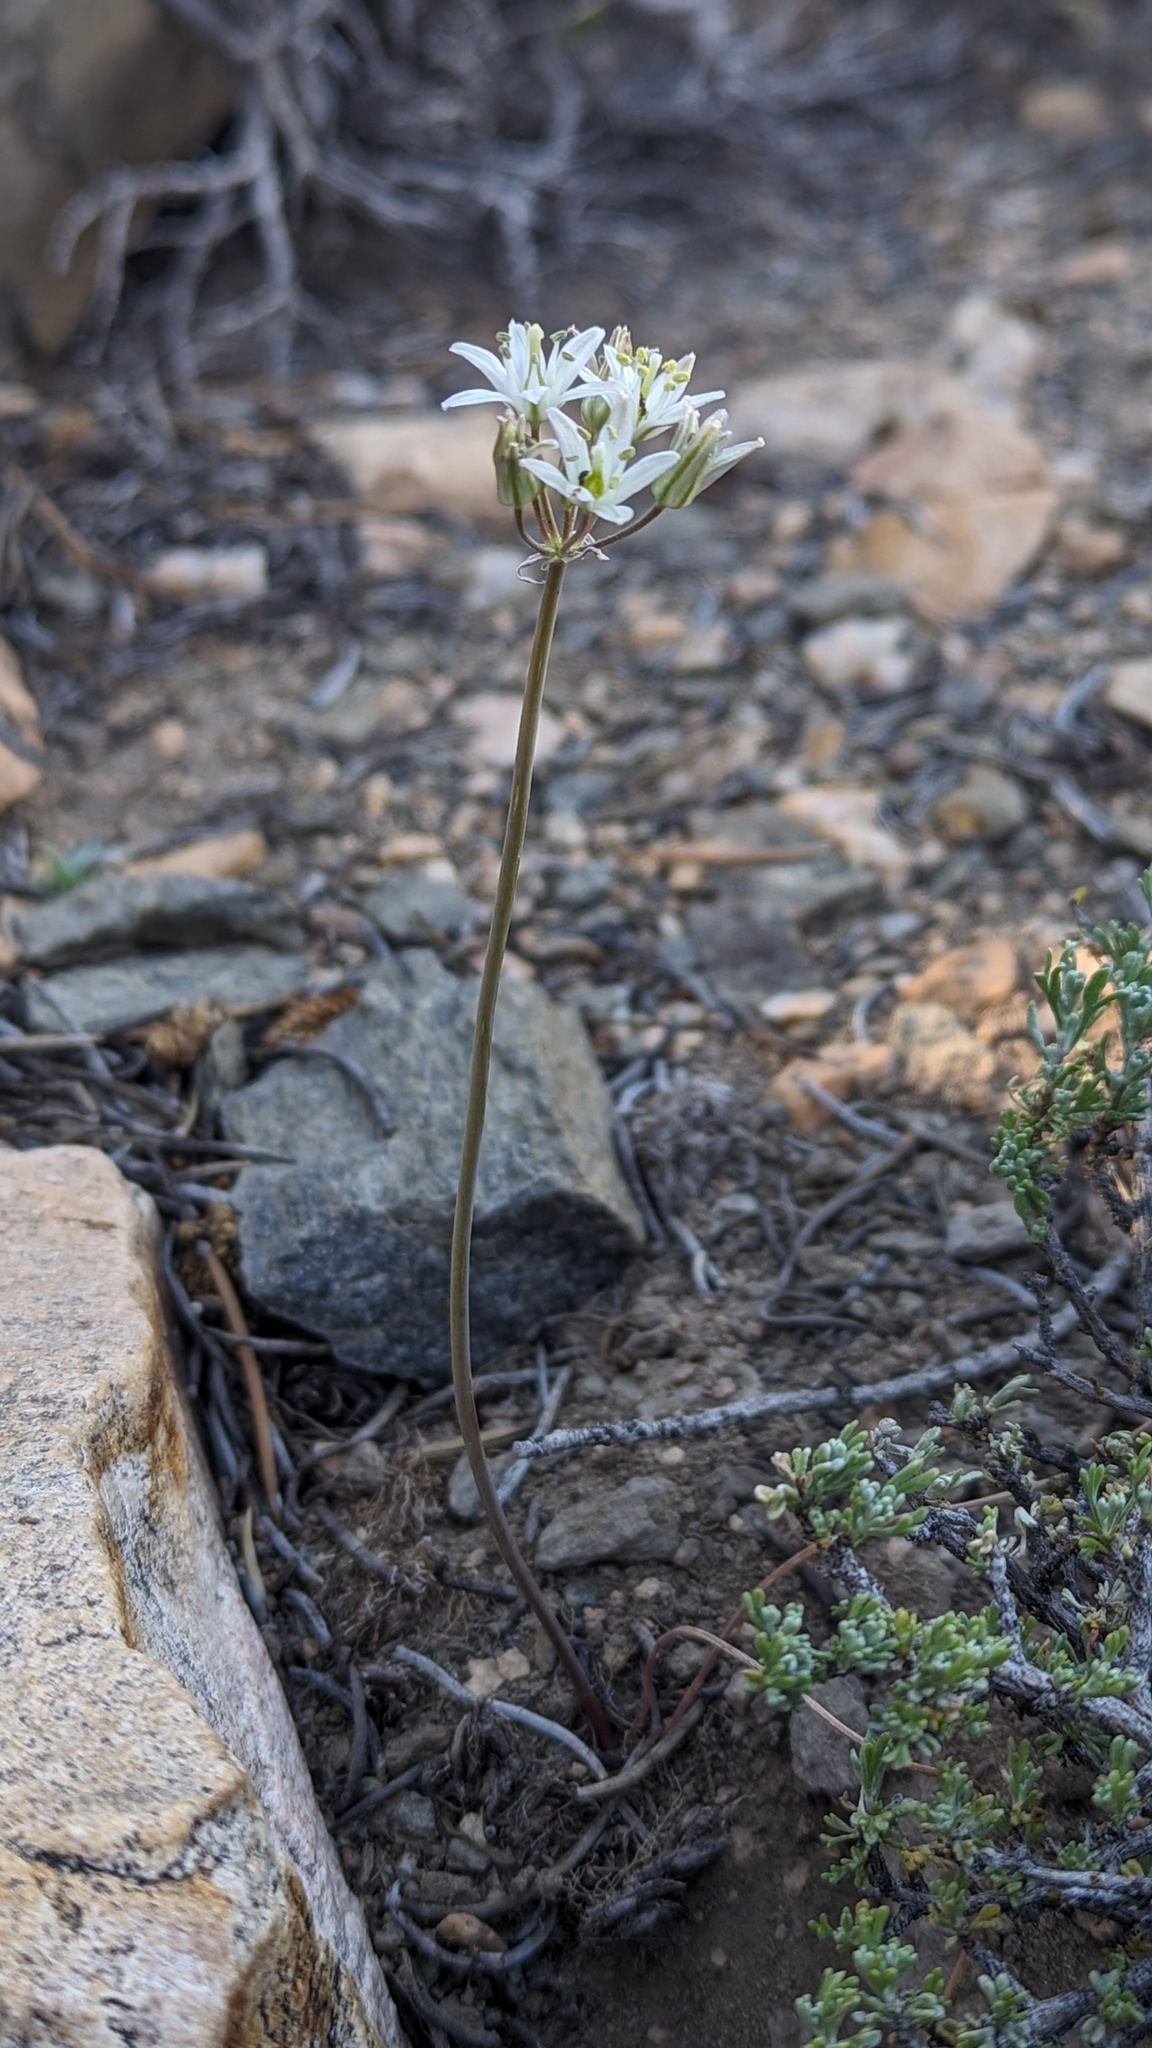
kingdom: Plantae
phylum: Tracheophyta
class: Liliopsida
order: Asparagales
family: Asparagaceae
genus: Muilla
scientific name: Muilla transmontana
